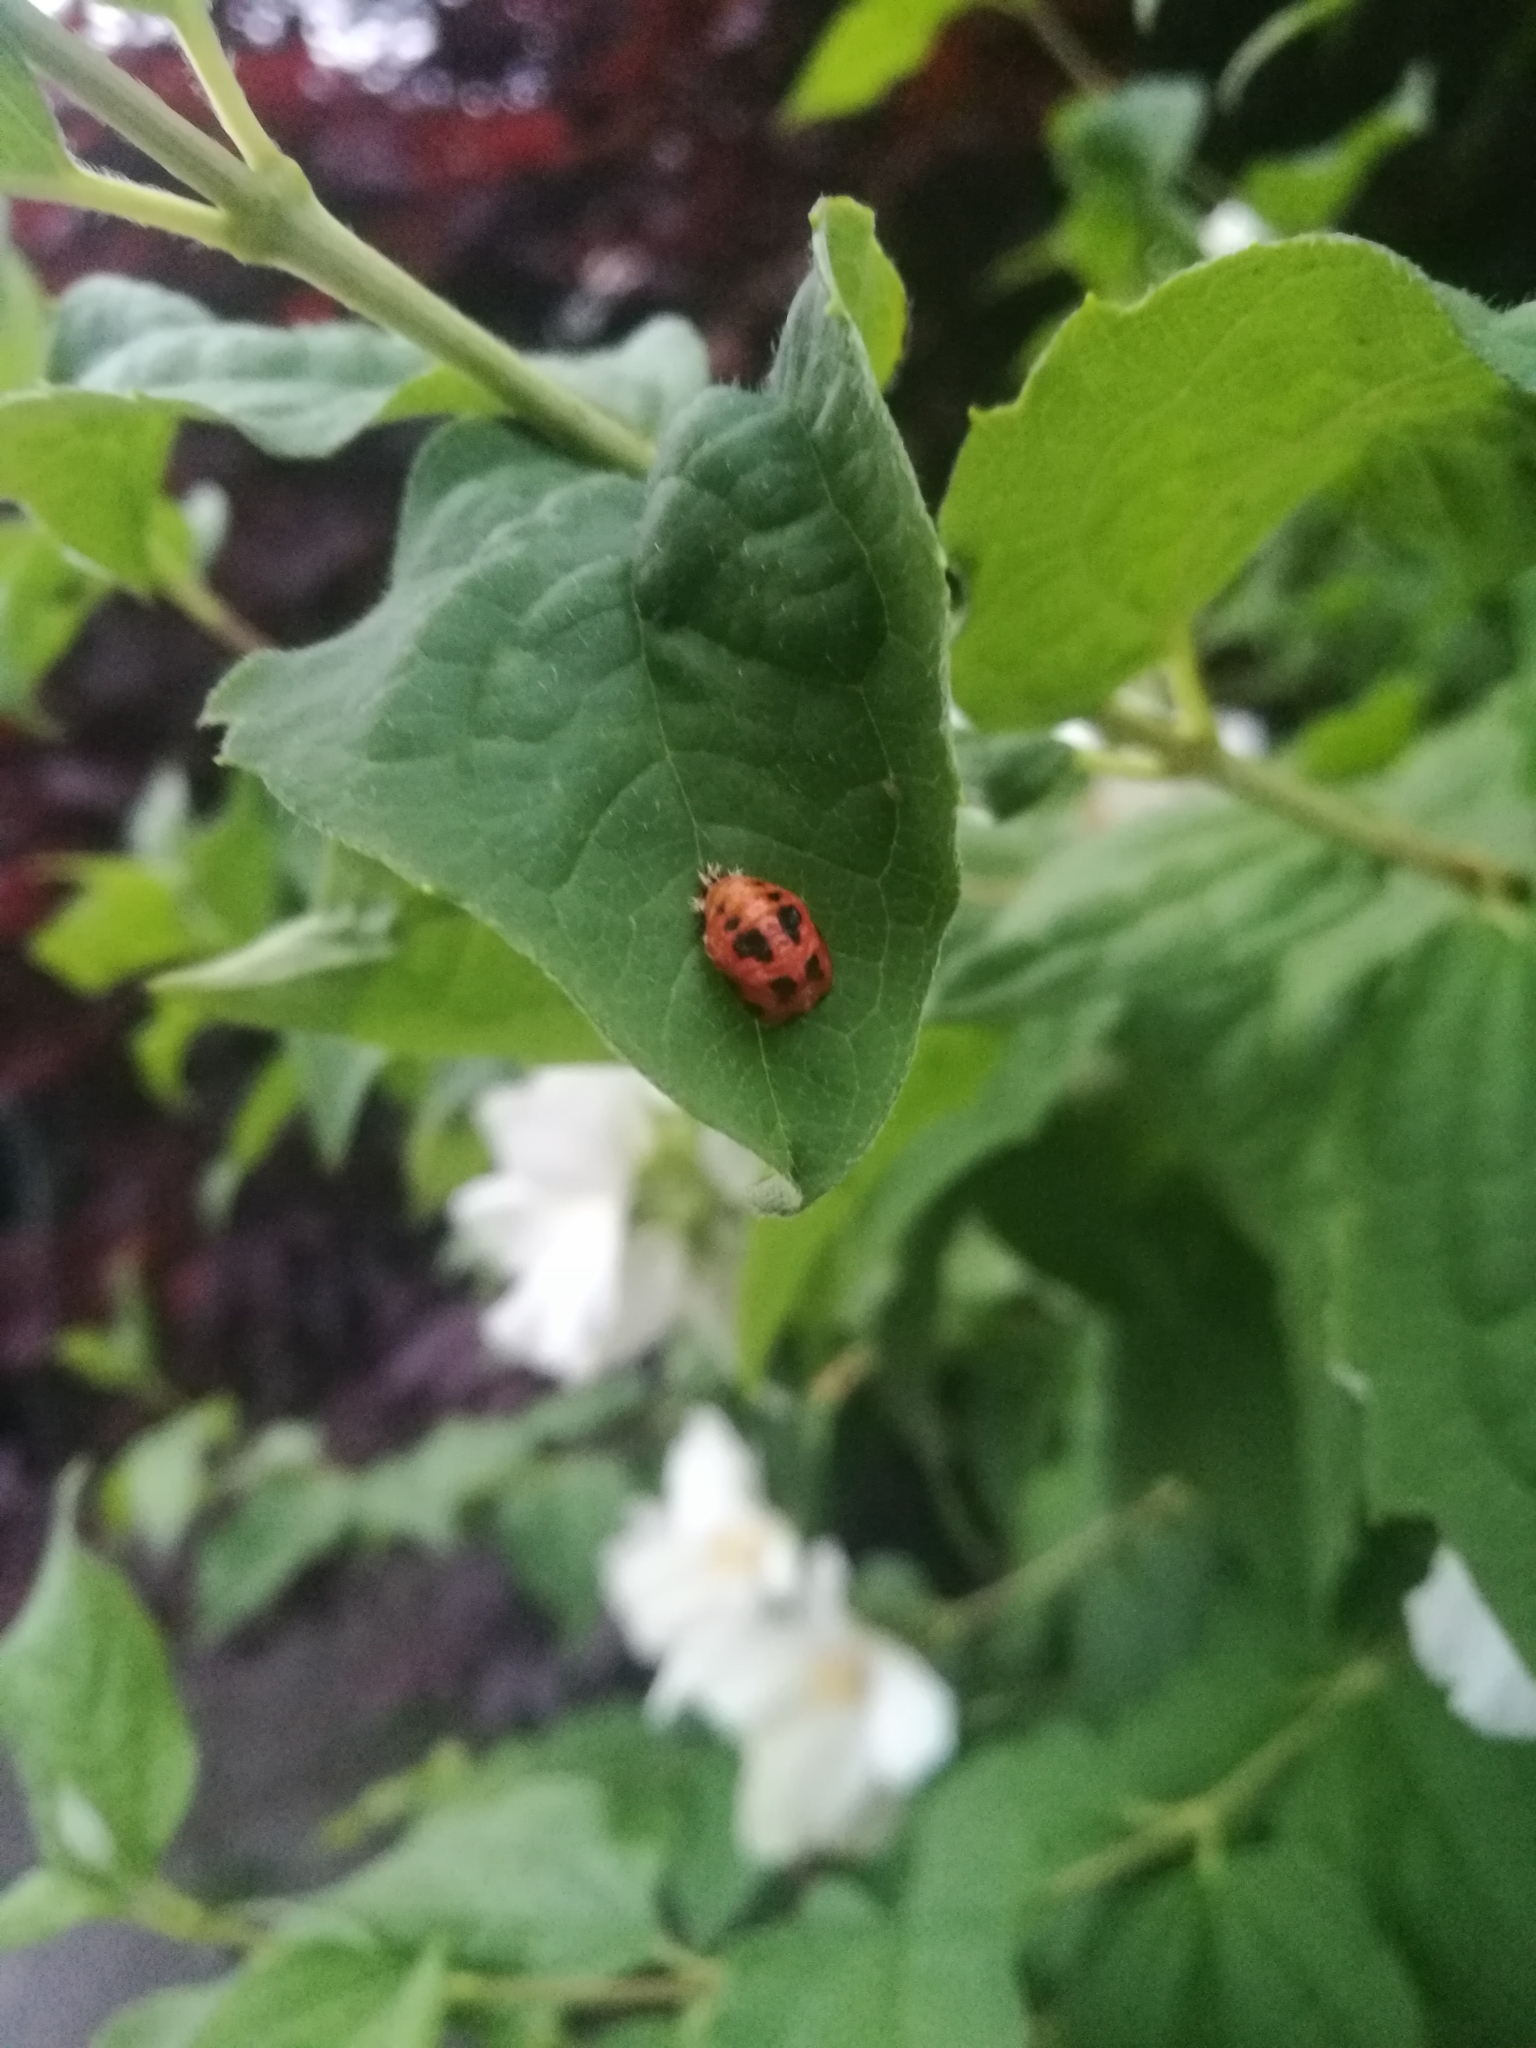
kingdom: Animalia
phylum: Arthropoda
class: Insecta
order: Coleoptera
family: Coccinellidae
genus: Harmonia
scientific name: Harmonia axyridis
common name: Harlequin ladybird
